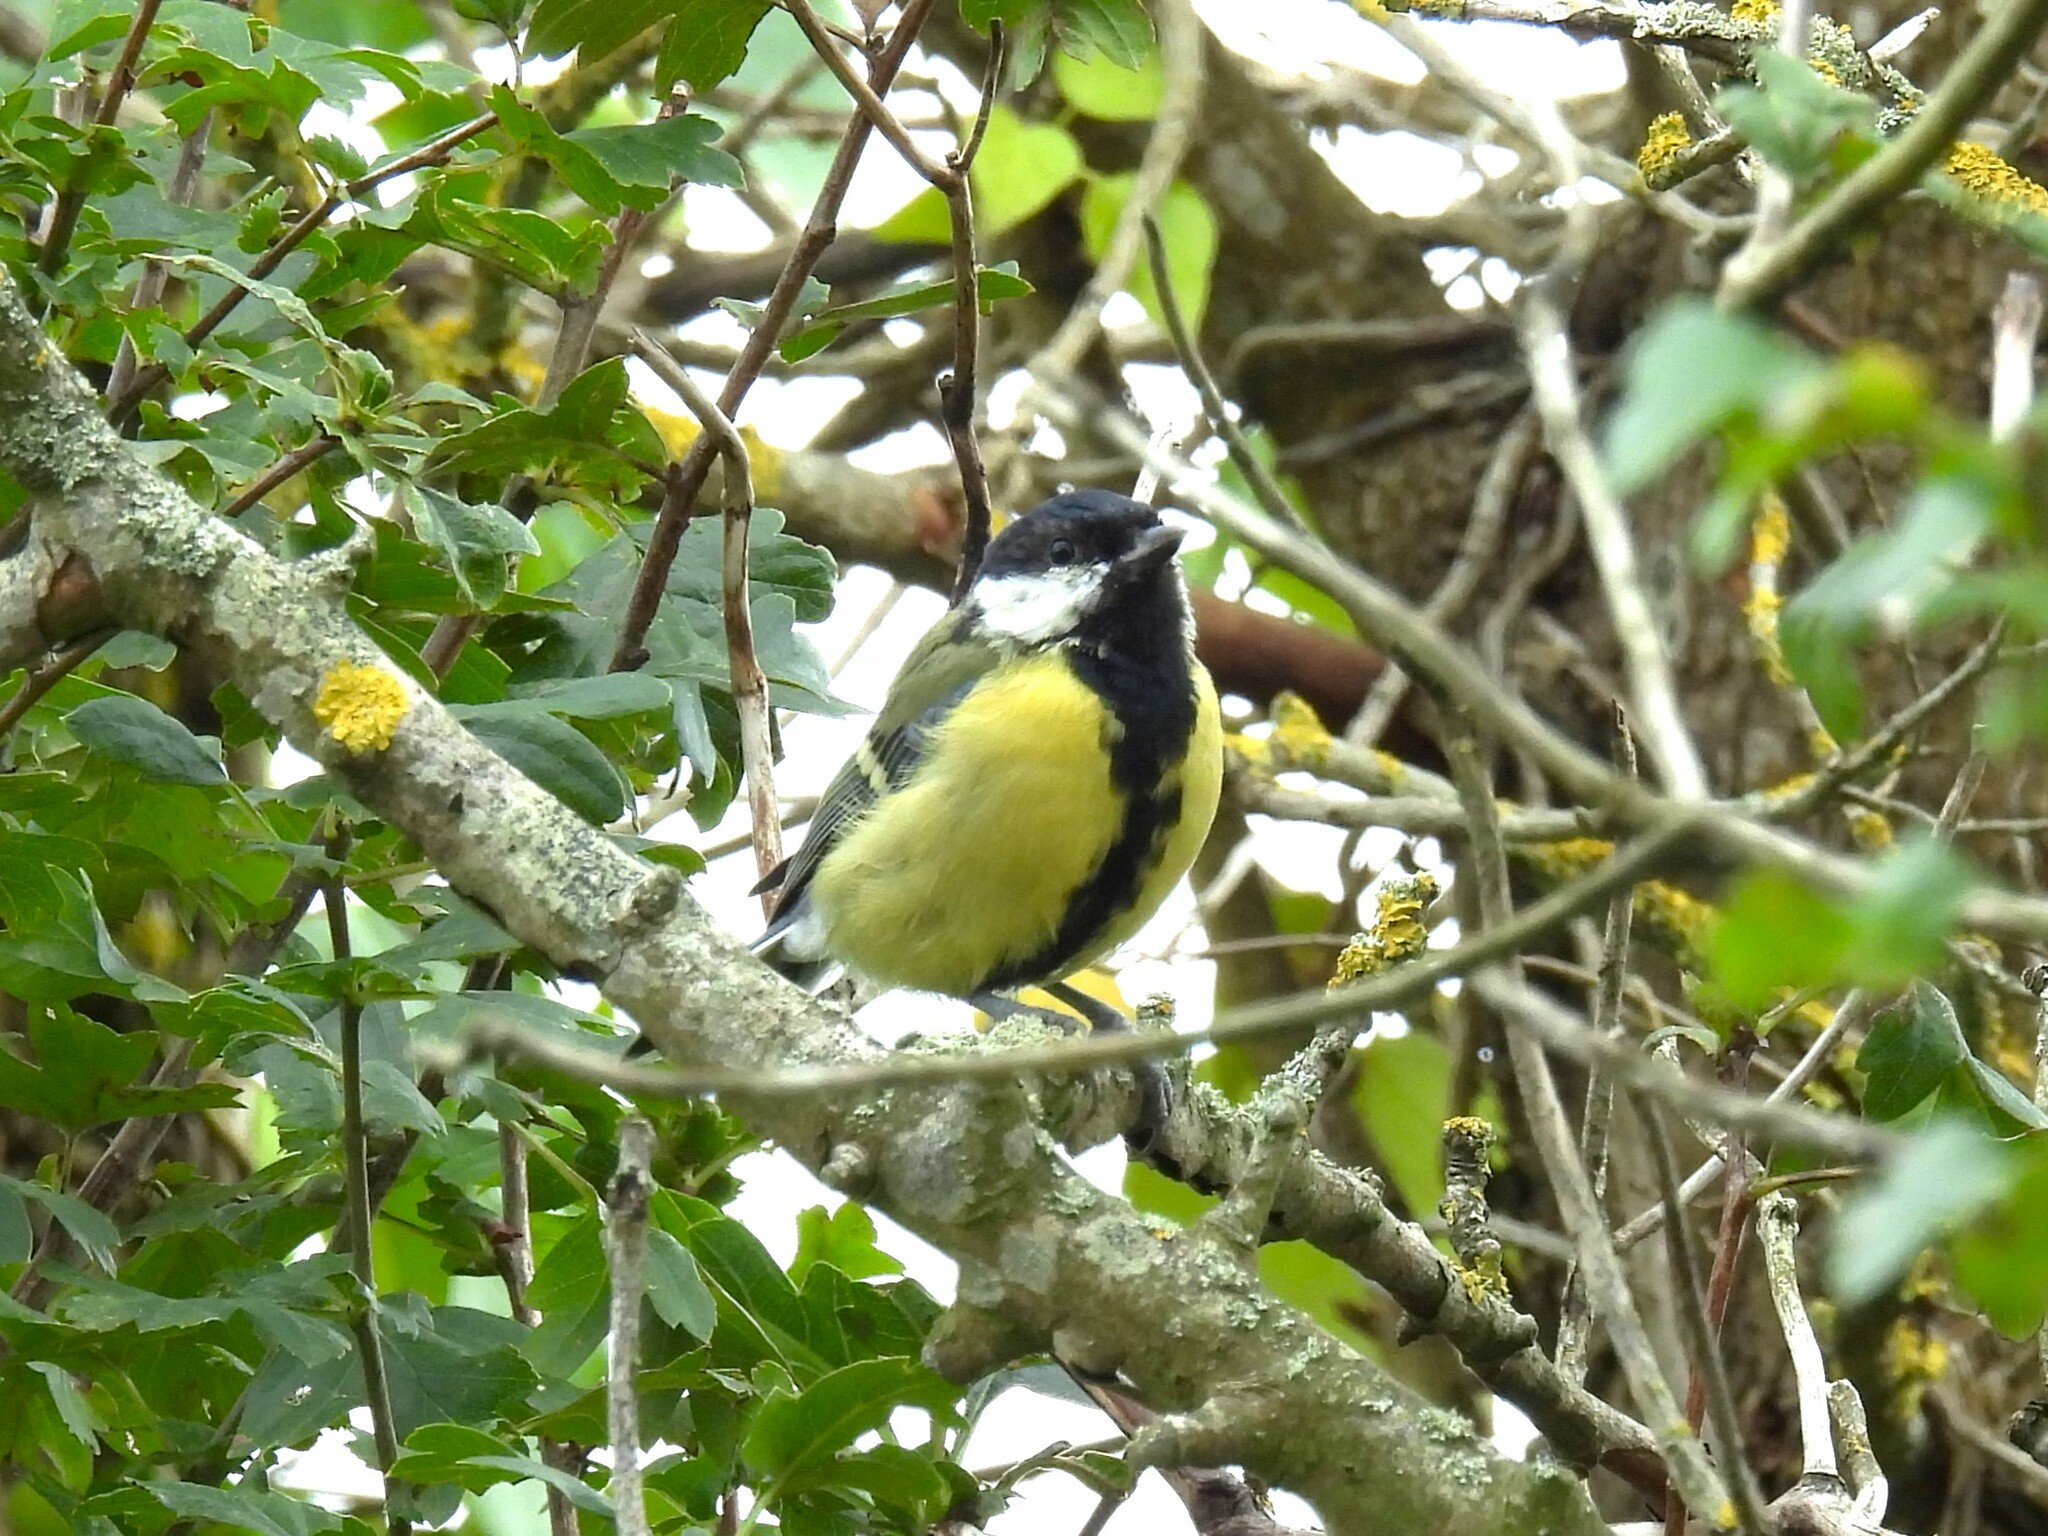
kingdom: Animalia
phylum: Chordata
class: Aves
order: Passeriformes
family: Paridae
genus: Parus
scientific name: Parus major
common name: Great tit
